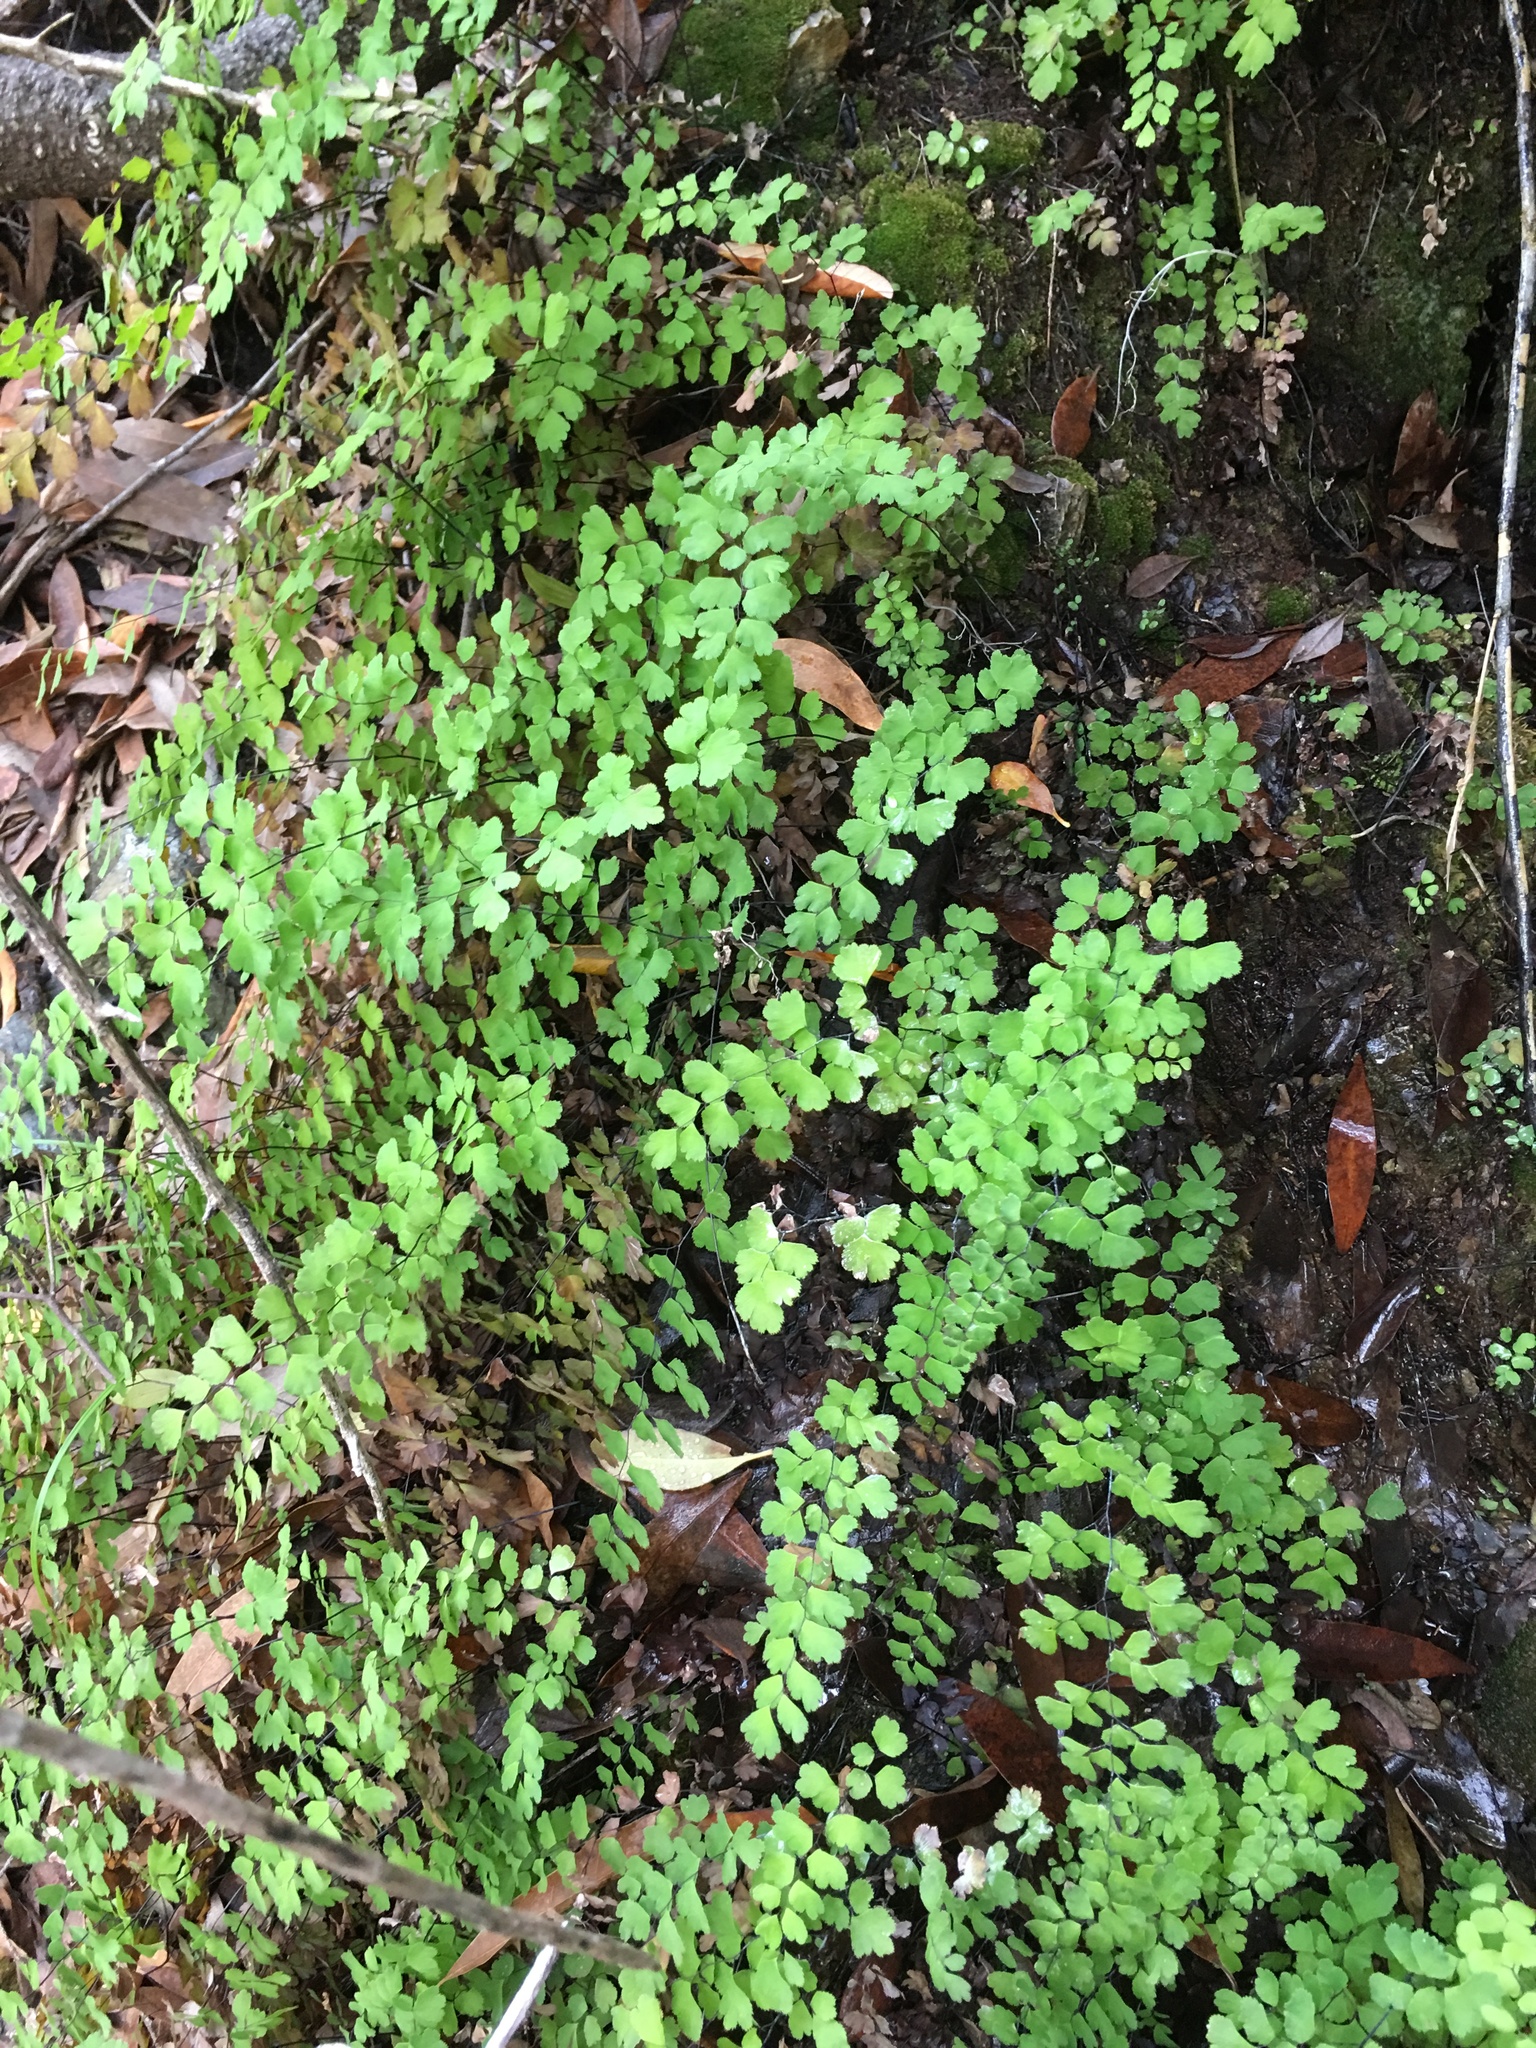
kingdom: Plantae
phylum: Tracheophyta
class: Polypodiopsida
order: Polypodiales
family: Pteridaceae
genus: Adiantum
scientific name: Adiantum capillus-veneris
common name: Maidenhair fern
